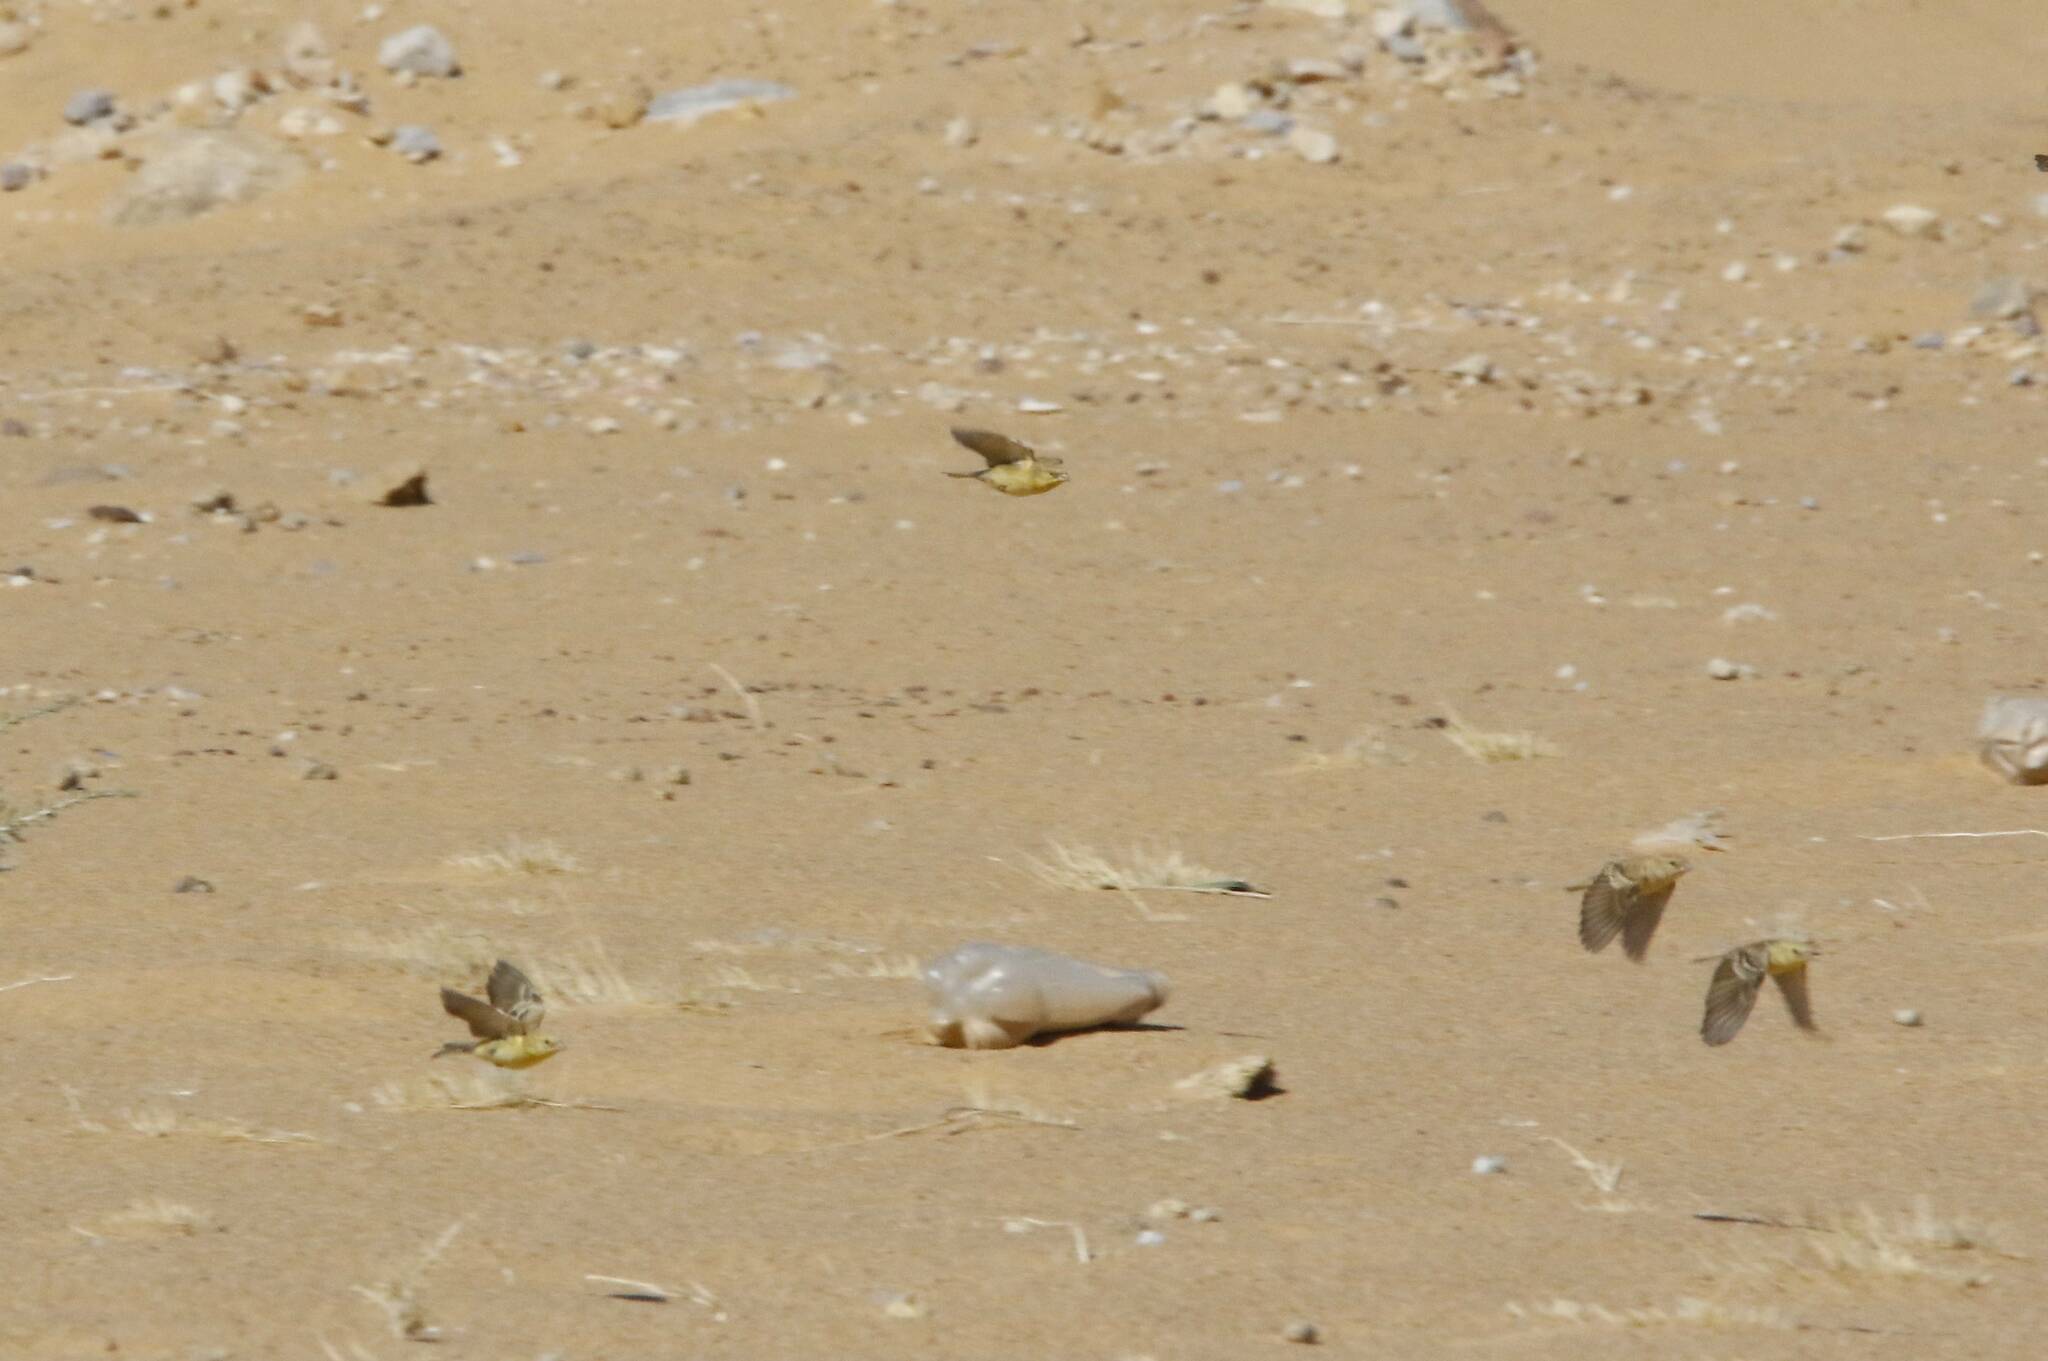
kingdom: Animalia
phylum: Chordata
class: Aves
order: Passeriformes
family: Passeridae
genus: Passer
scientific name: Passer luteus
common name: Sudan golden sparrow
